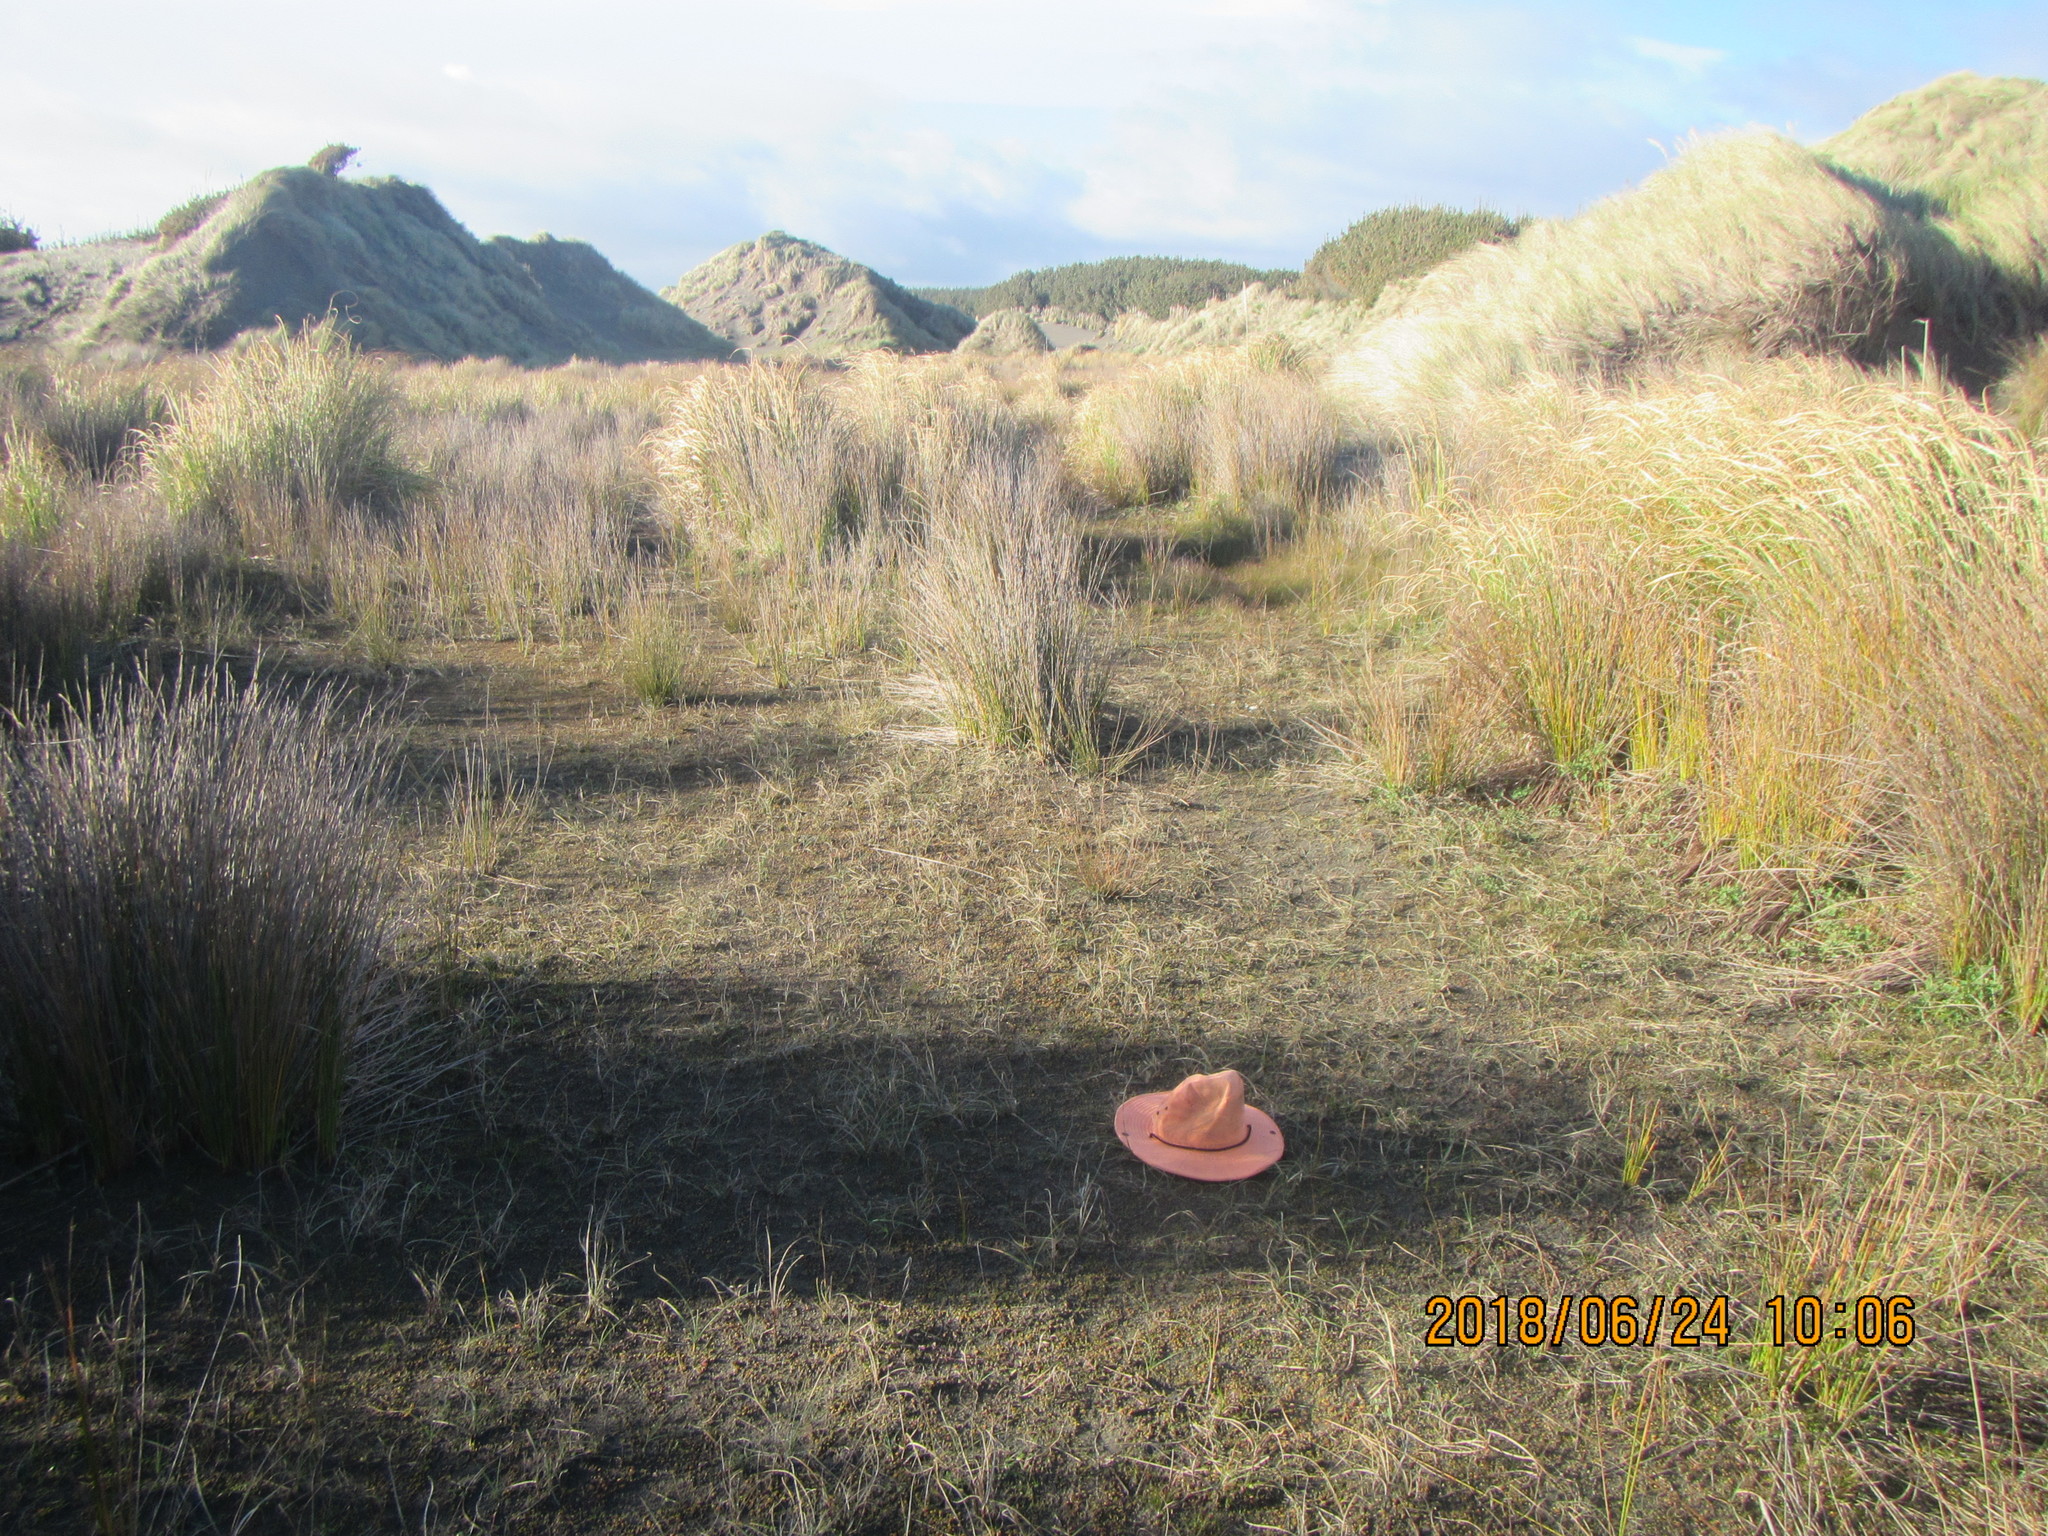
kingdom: Plantae
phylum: Tracheophyta
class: Liliopsida
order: Poales
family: Cyperaceae
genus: Carex
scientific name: Carex pumila
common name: Dwarf sedge
